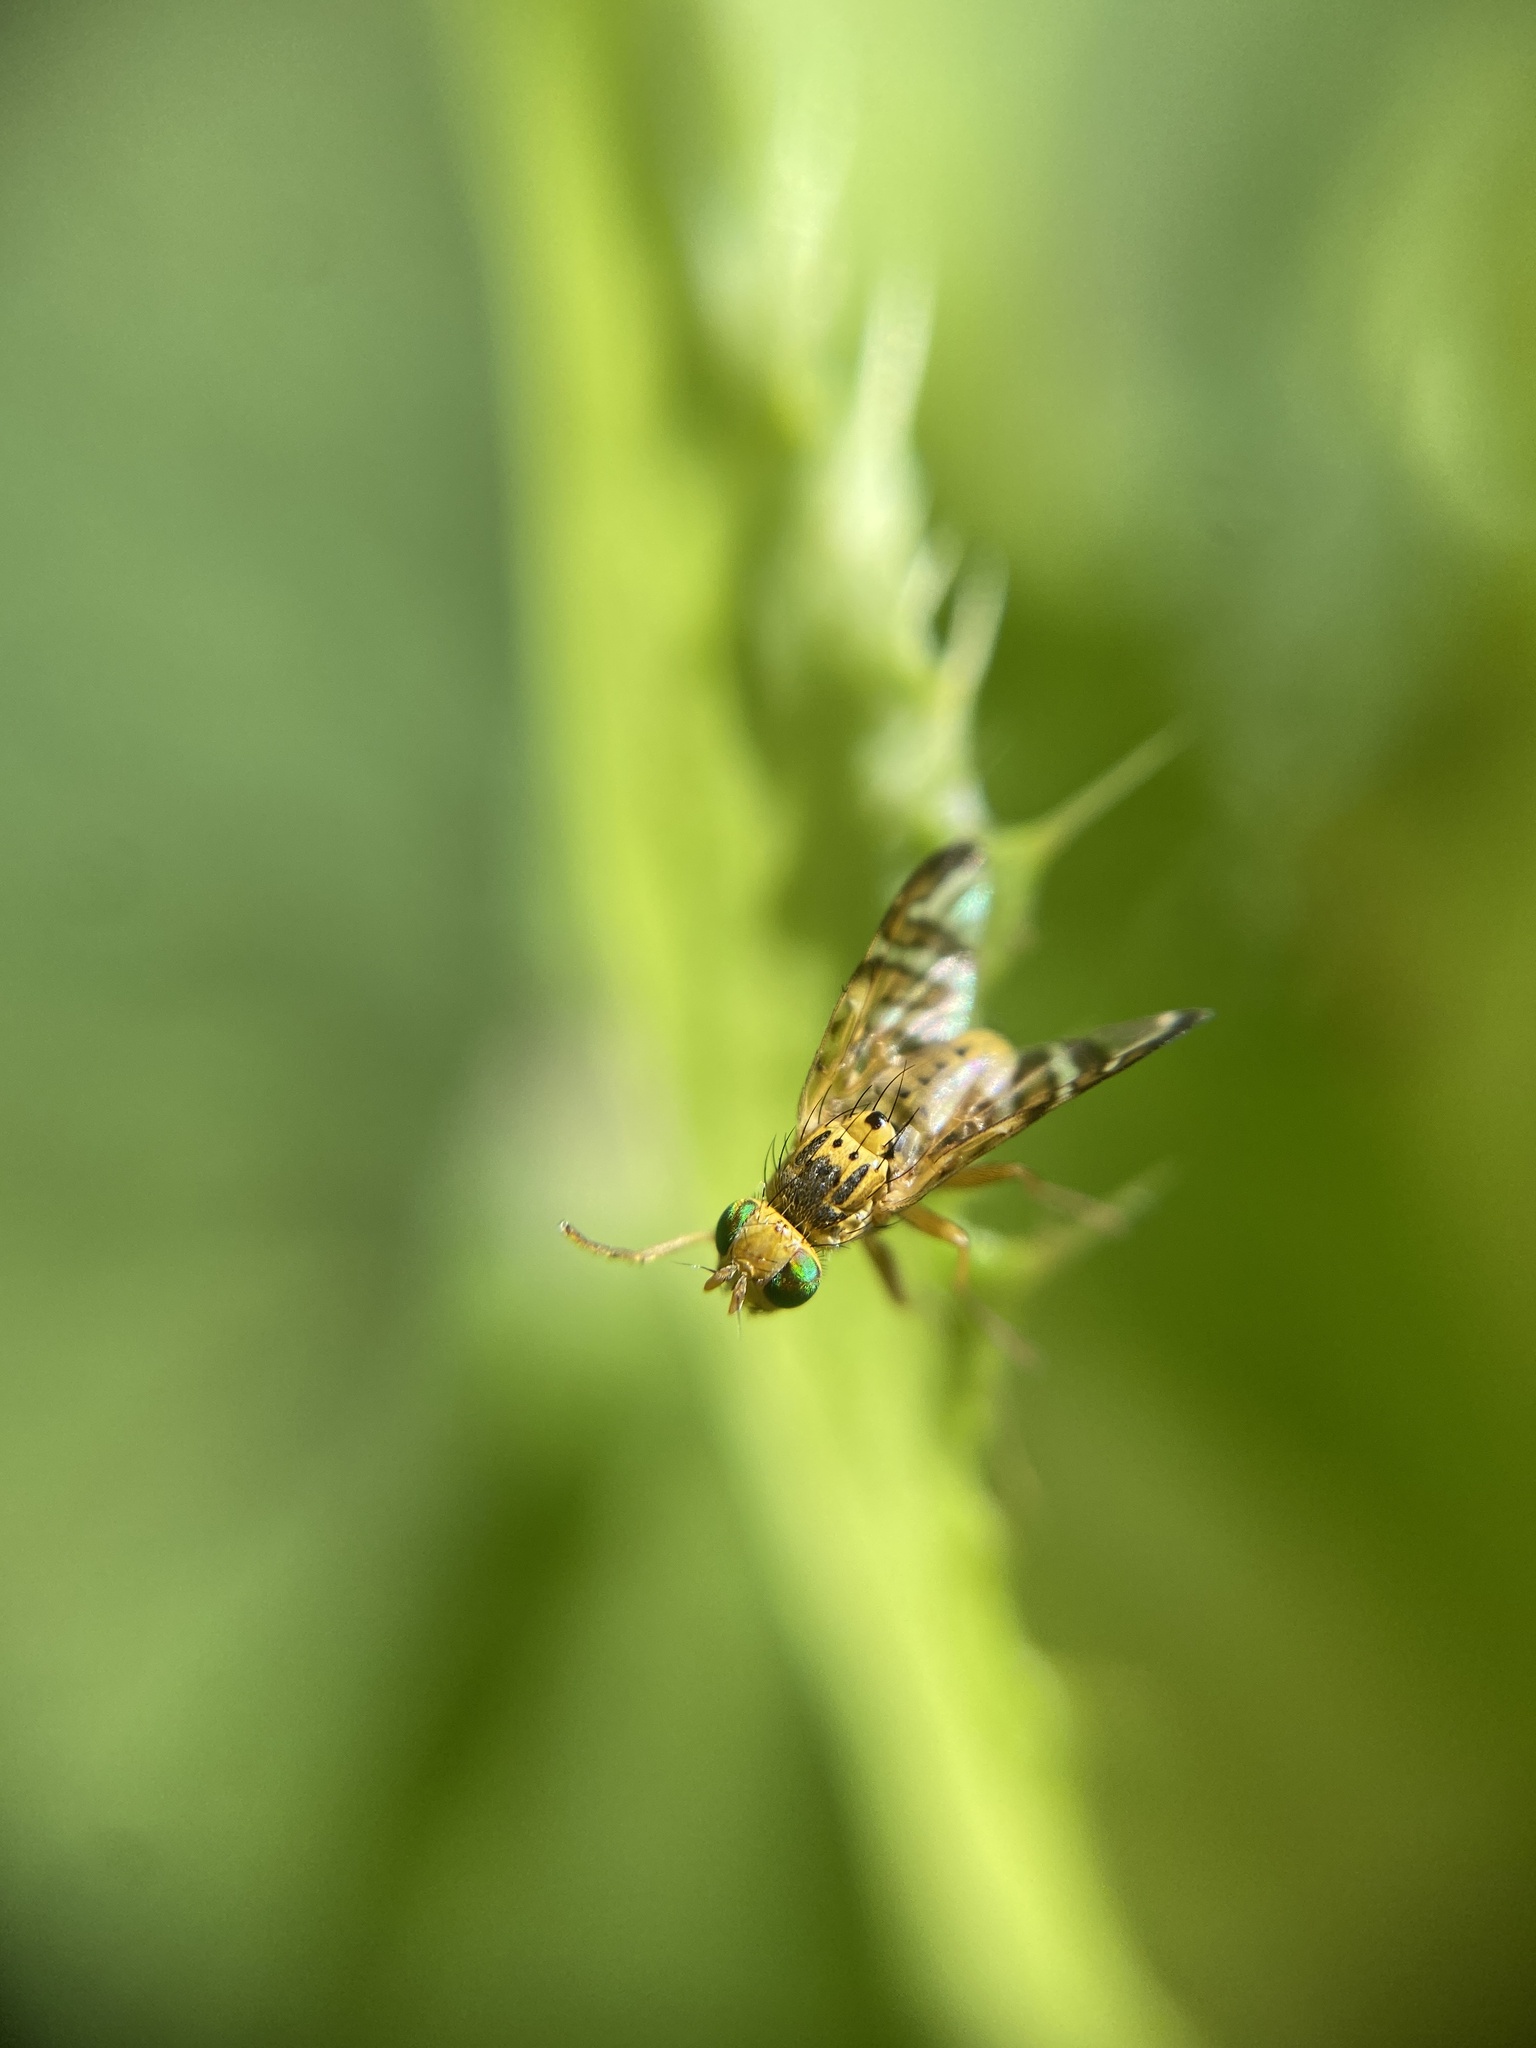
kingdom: Animalia
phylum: Arthropoda
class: Insecta
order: Diptera
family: Tephritidae
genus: Chaetostomella
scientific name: Chaetostomella cylindrica
